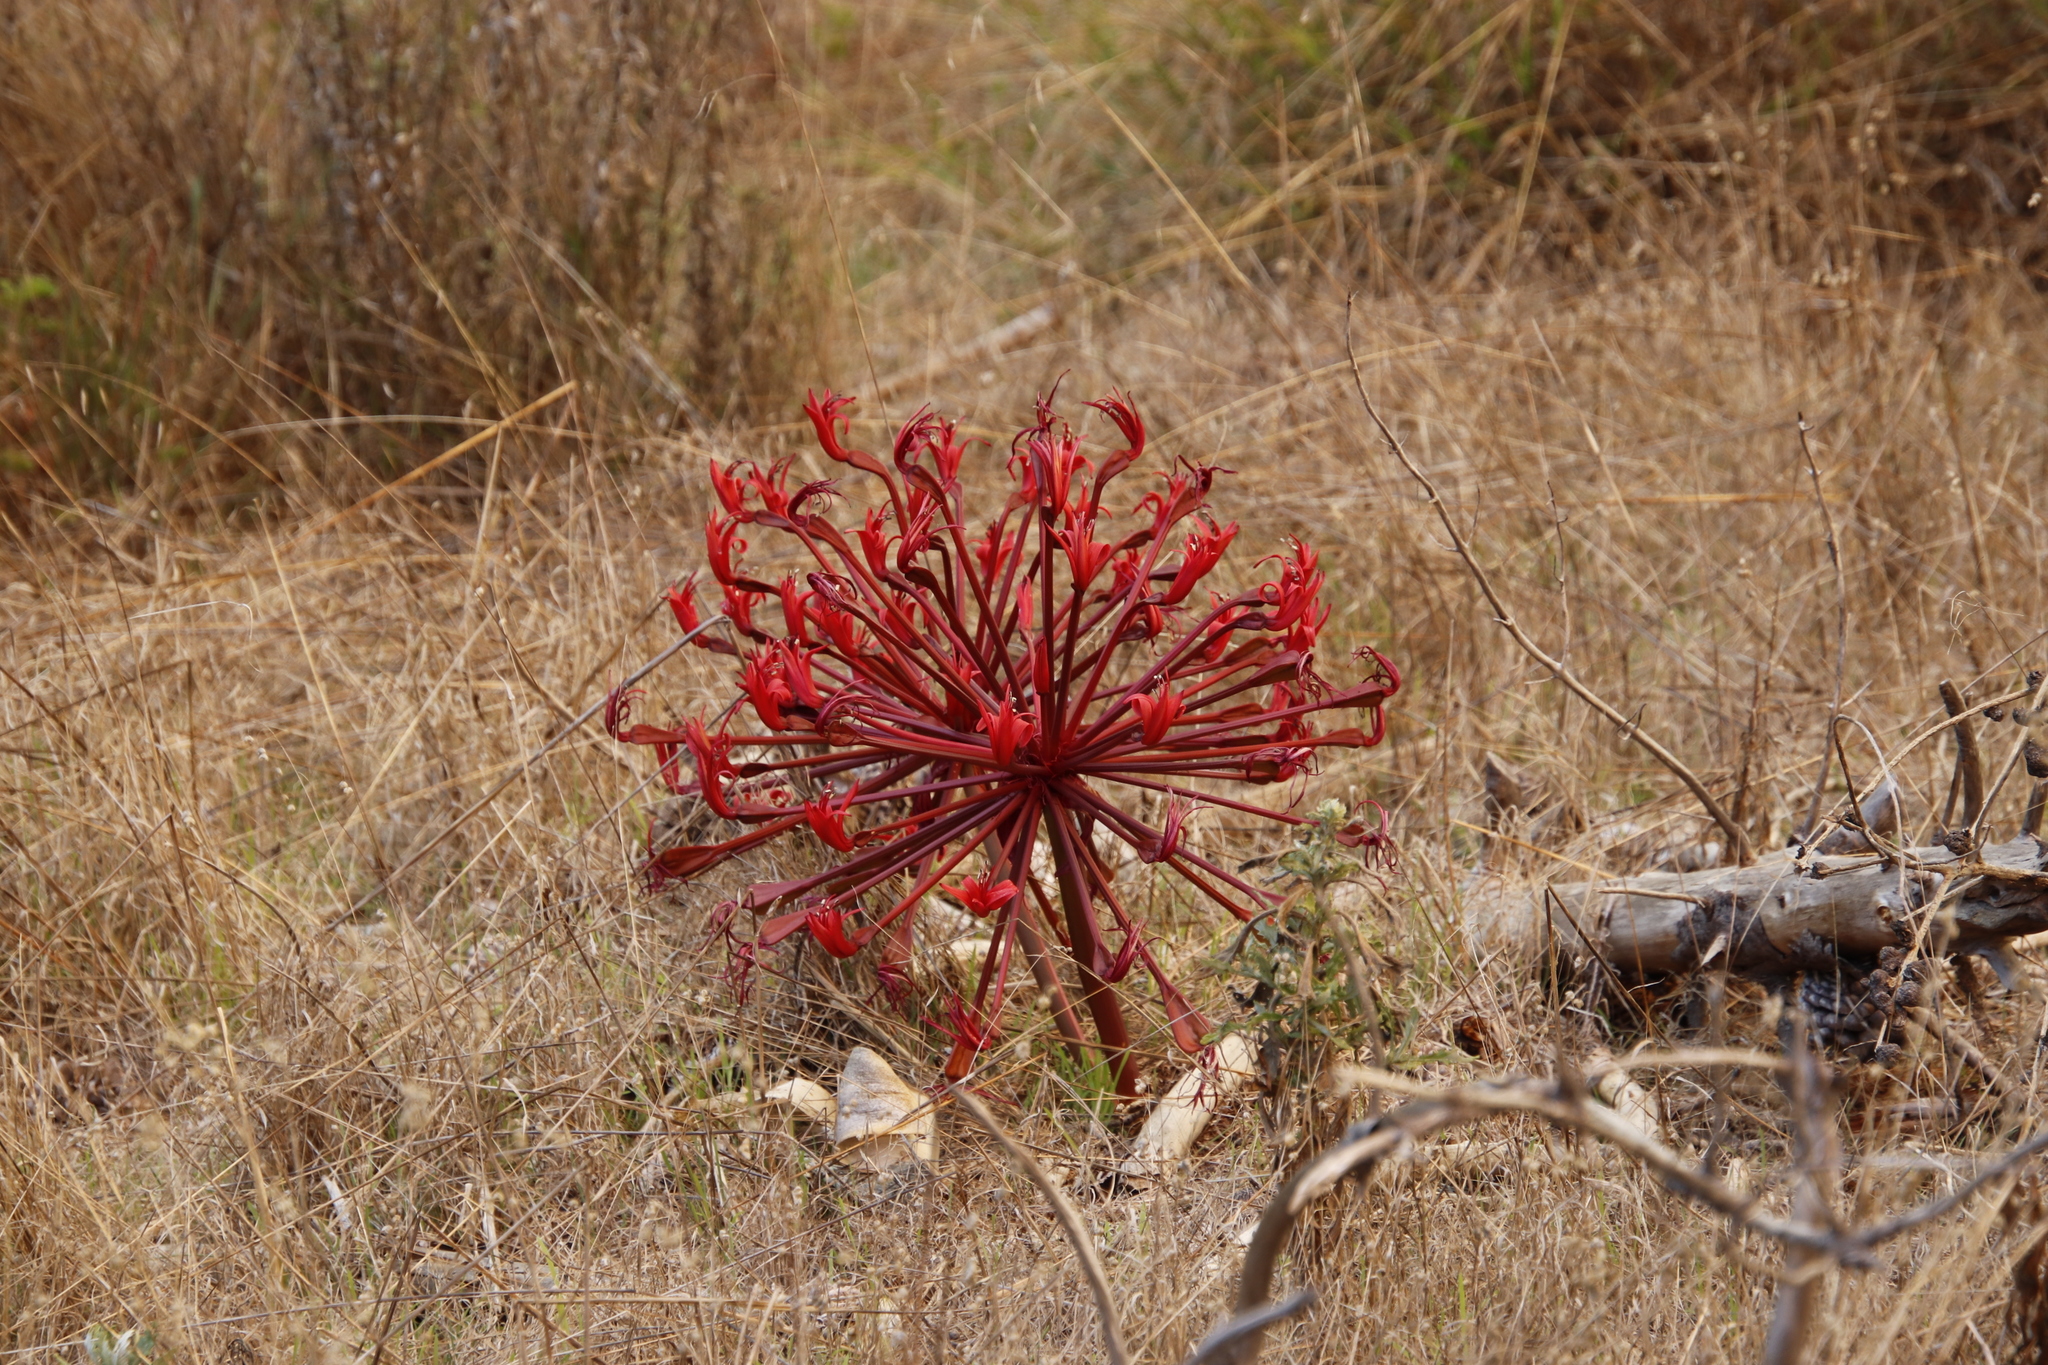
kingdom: Plantae
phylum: Tracheophyta
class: Liliopsida
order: Asparagales
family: Amaryllidaceae
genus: Brunsvigia
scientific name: Brunsvigia orientalis
